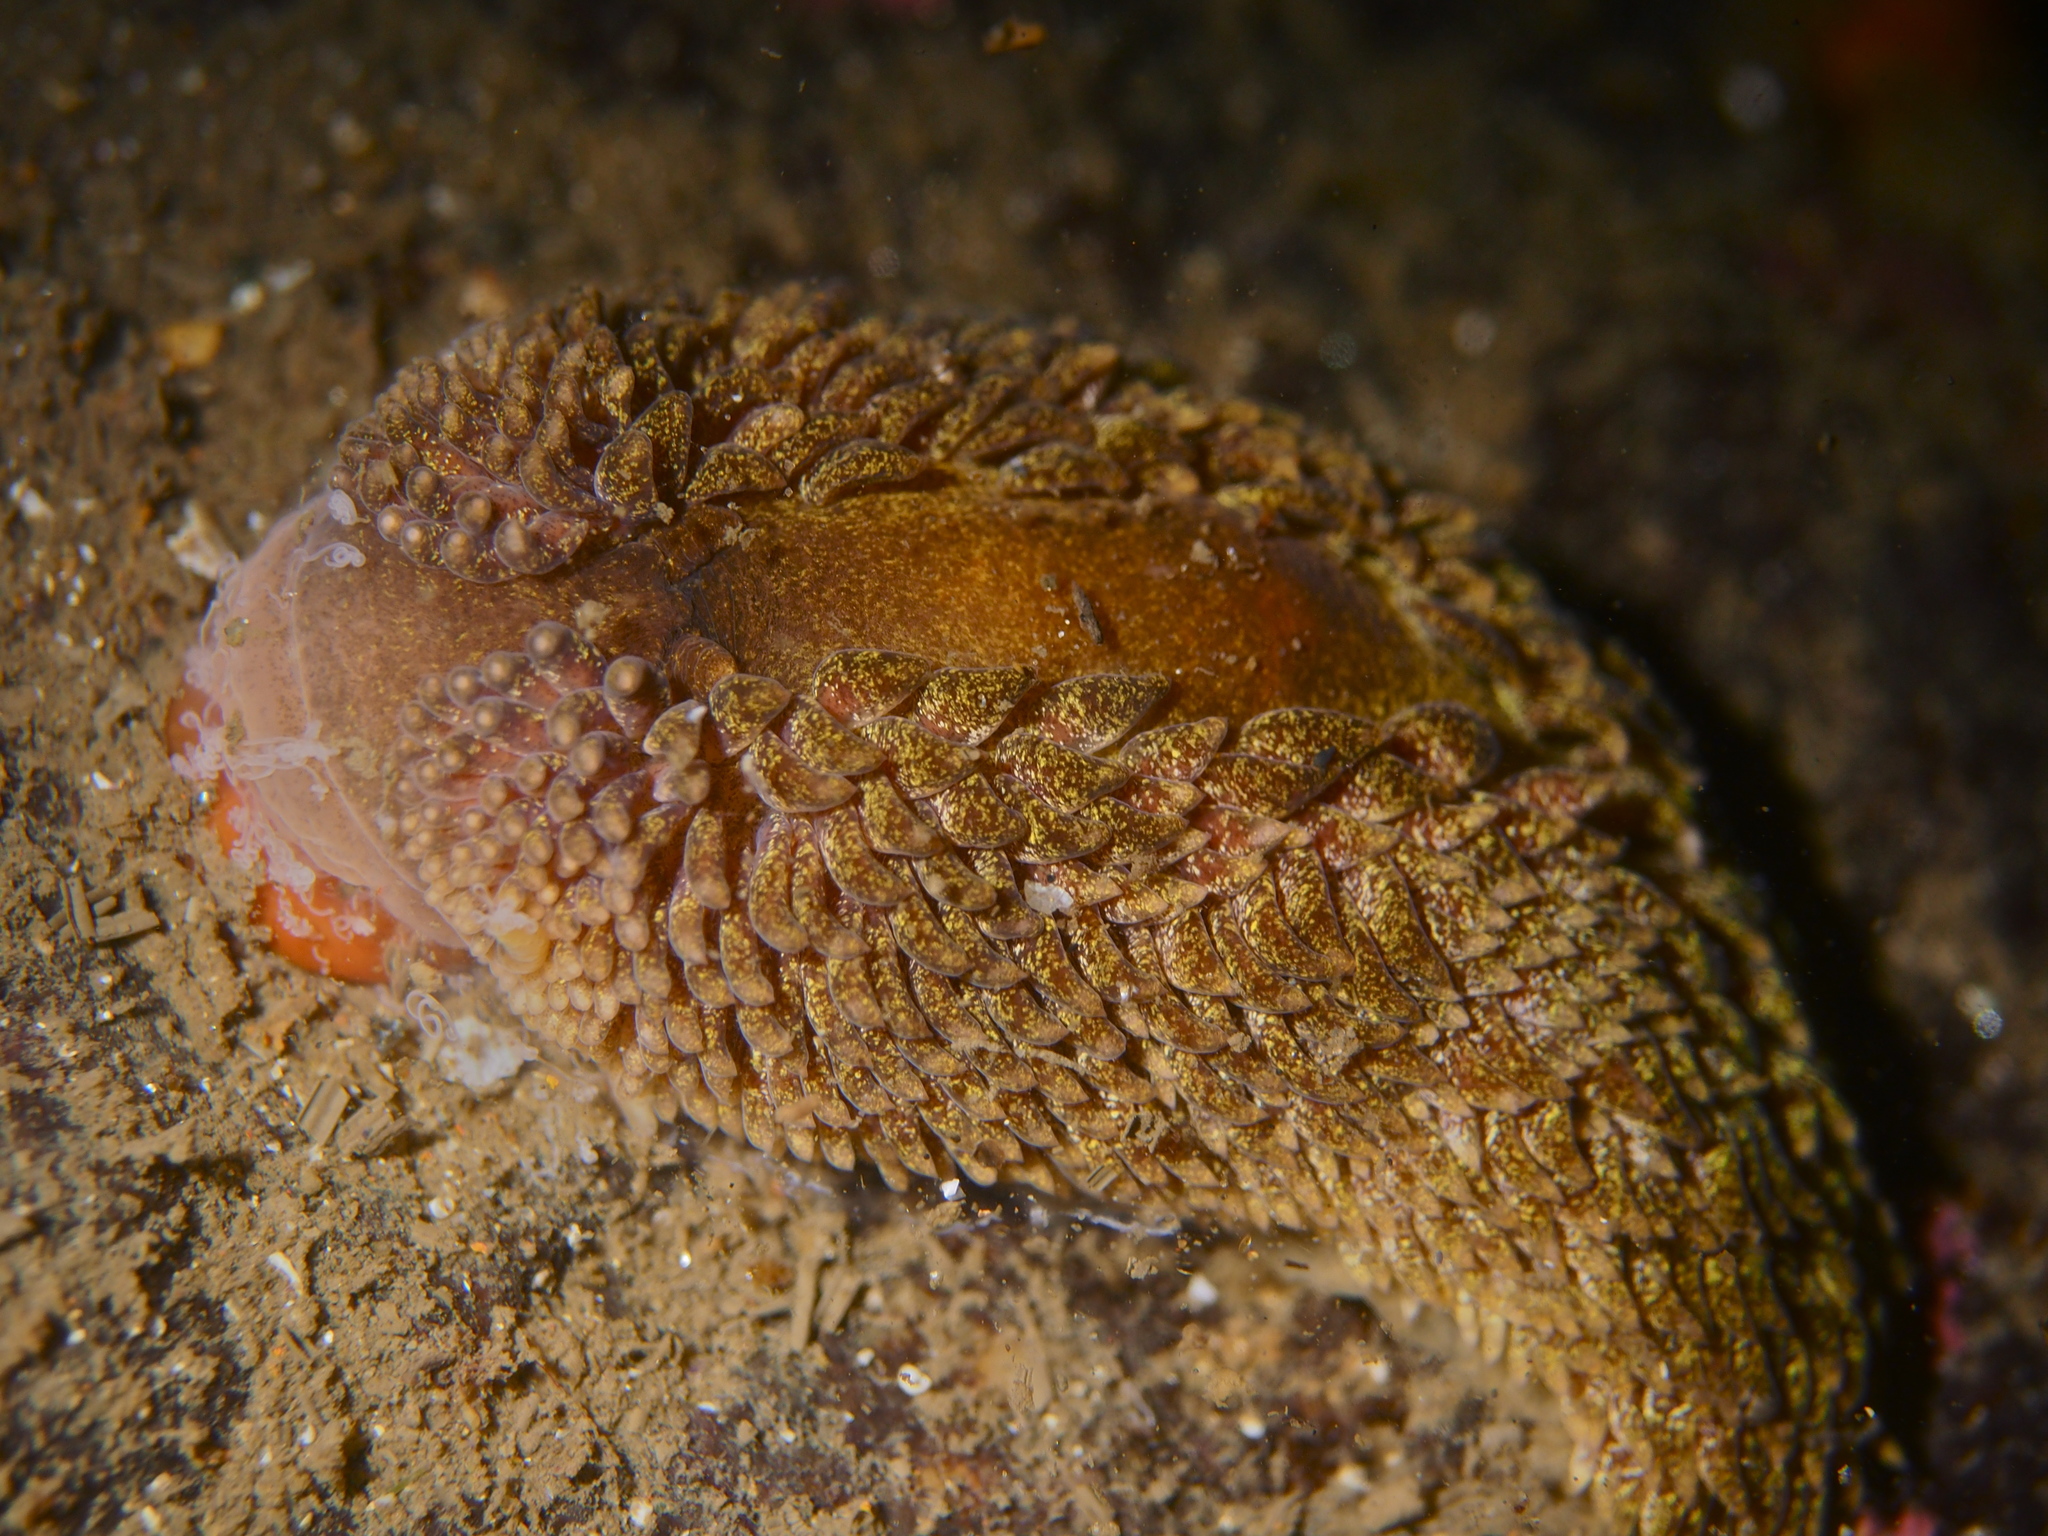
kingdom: Animalia
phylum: Mollusca
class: Gastropoda
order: Nudibranchia
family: Aeolidiidae
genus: Aeolidia
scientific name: Aeolidia papillosa
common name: Common grey sea slug
